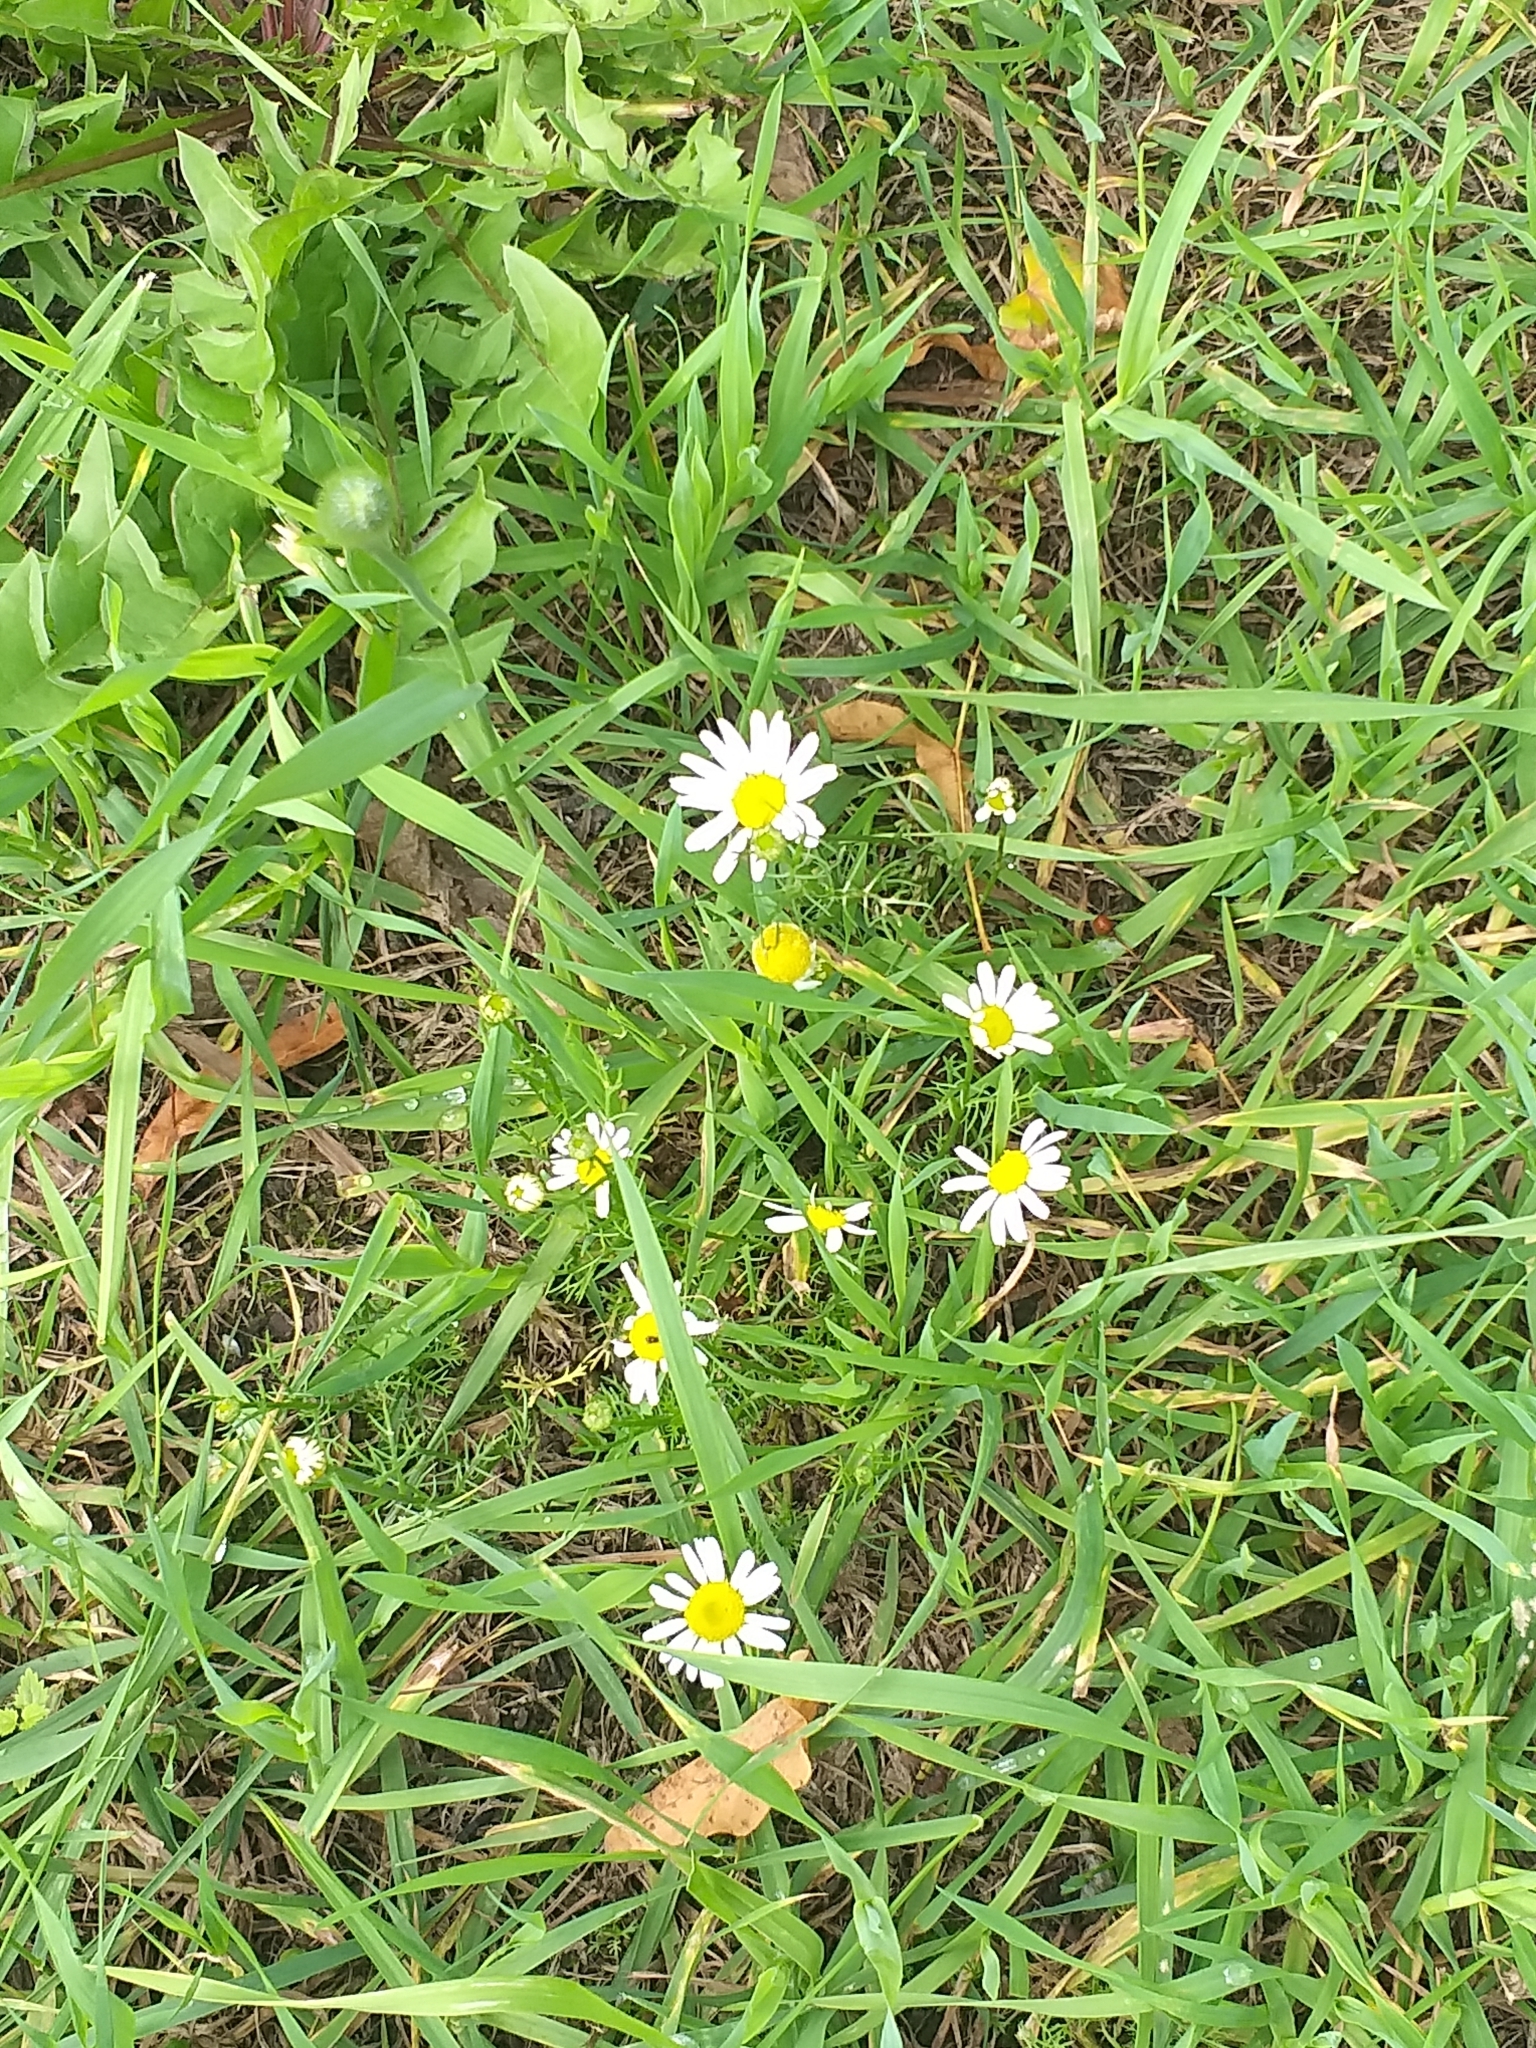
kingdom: Plantae
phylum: Tracheophyta
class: Magnoliopsida
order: Asterales
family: Asteraceae
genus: Tripleurospermum
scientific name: Tripleurospermum inodorum
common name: Scentless mayweed
